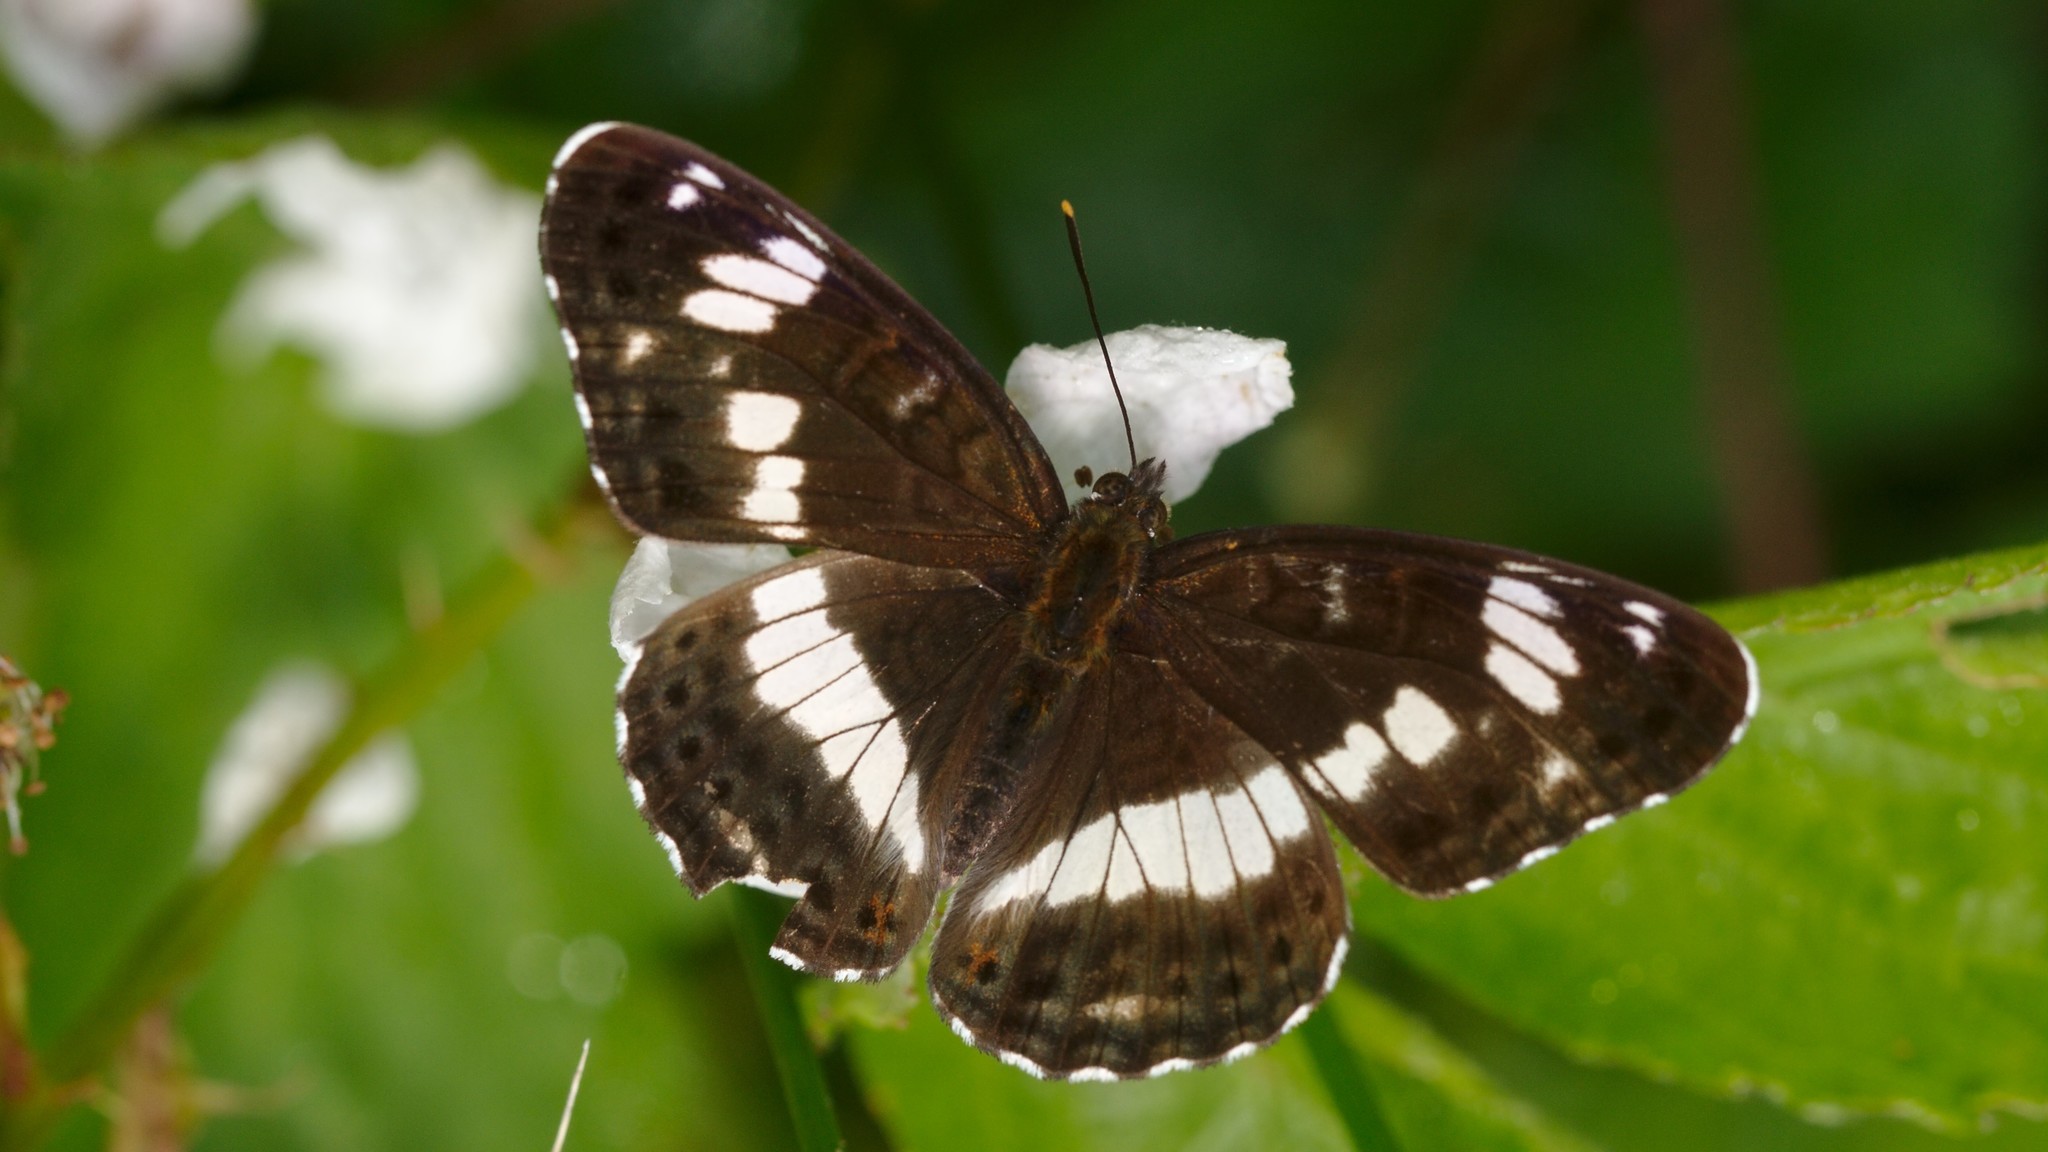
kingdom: Animalia
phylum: Arthropoda
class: Insecta
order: Lepidoptera
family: Nymphalidae
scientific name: Nymphalidae
